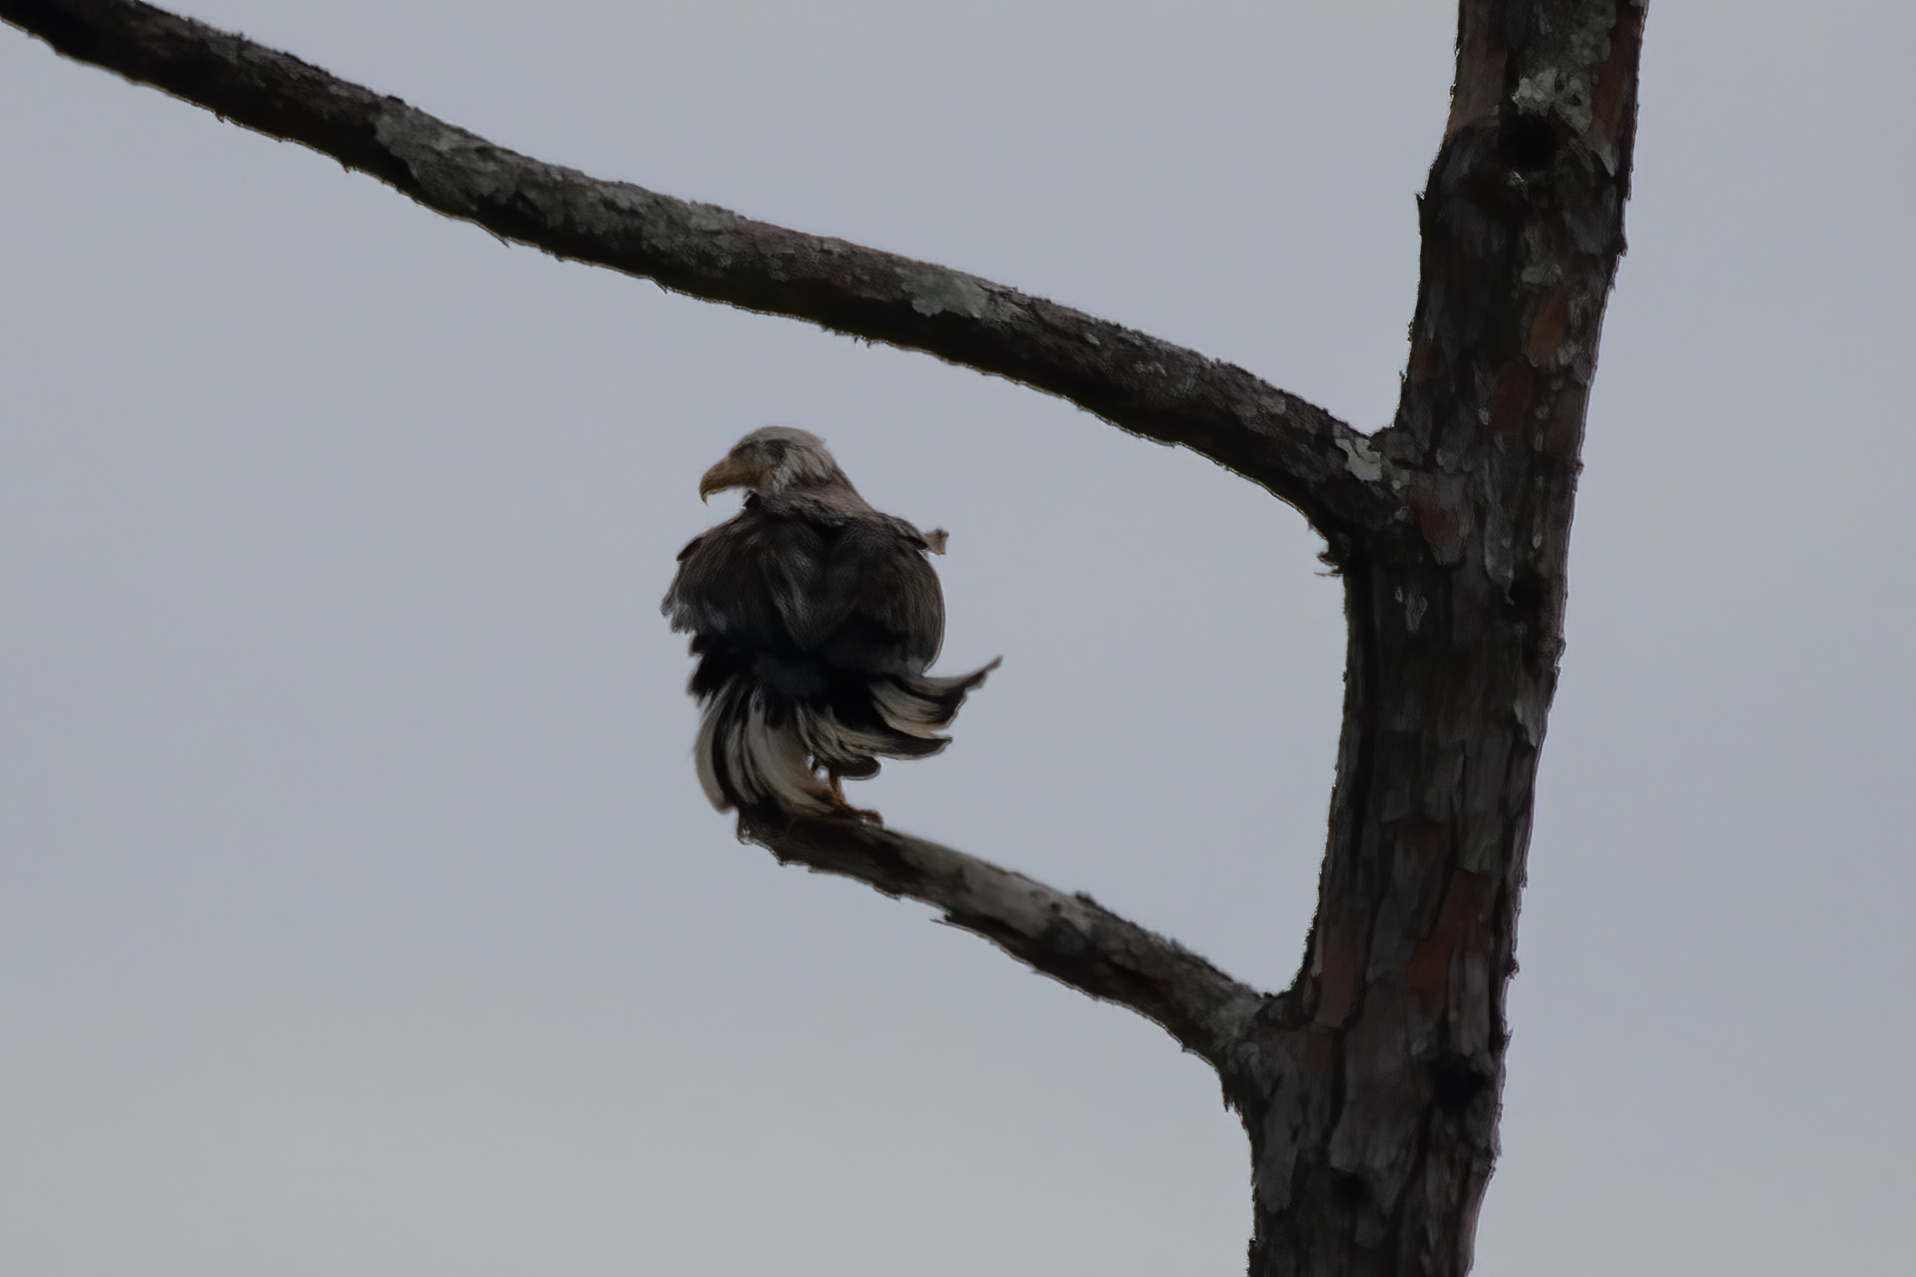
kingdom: Animalia
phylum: Chordata
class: Aves
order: Accipitriformes
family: Accipitridae
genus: Haliaeetus
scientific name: Haliaeetus leucocephalus
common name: Bald eagle
